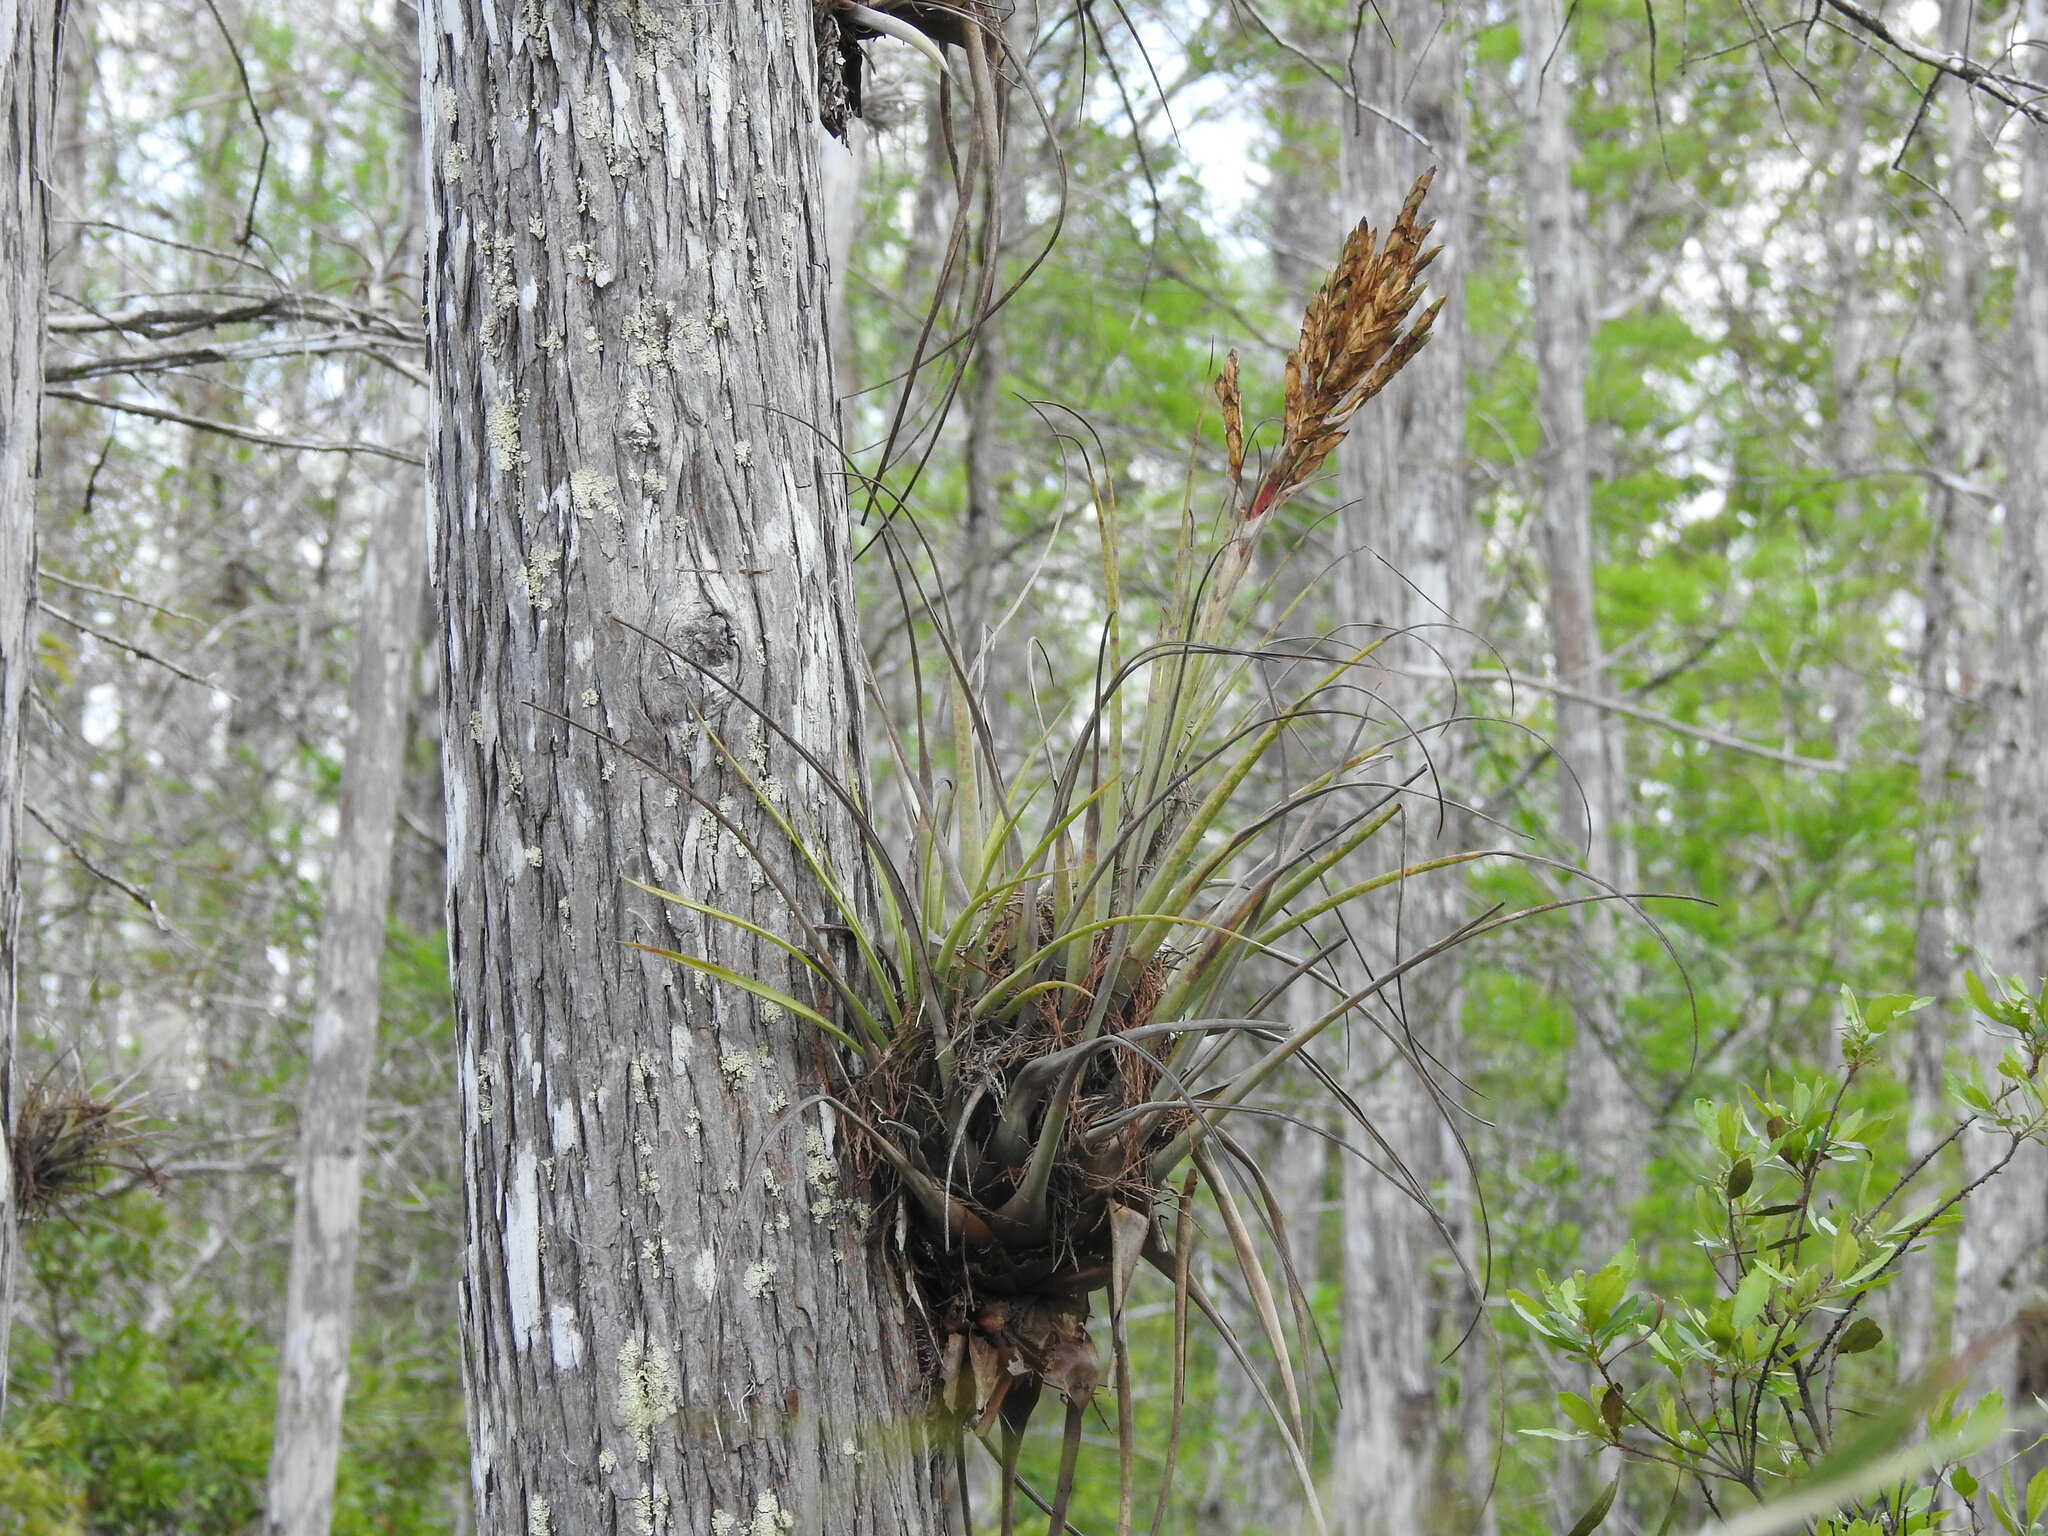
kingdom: Plantae
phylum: Tracheophyta
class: Liliopsida
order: Poales
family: Bromeliaceae
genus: Tillandsia
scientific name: Tillandsia fasciculata
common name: Giant airplant
